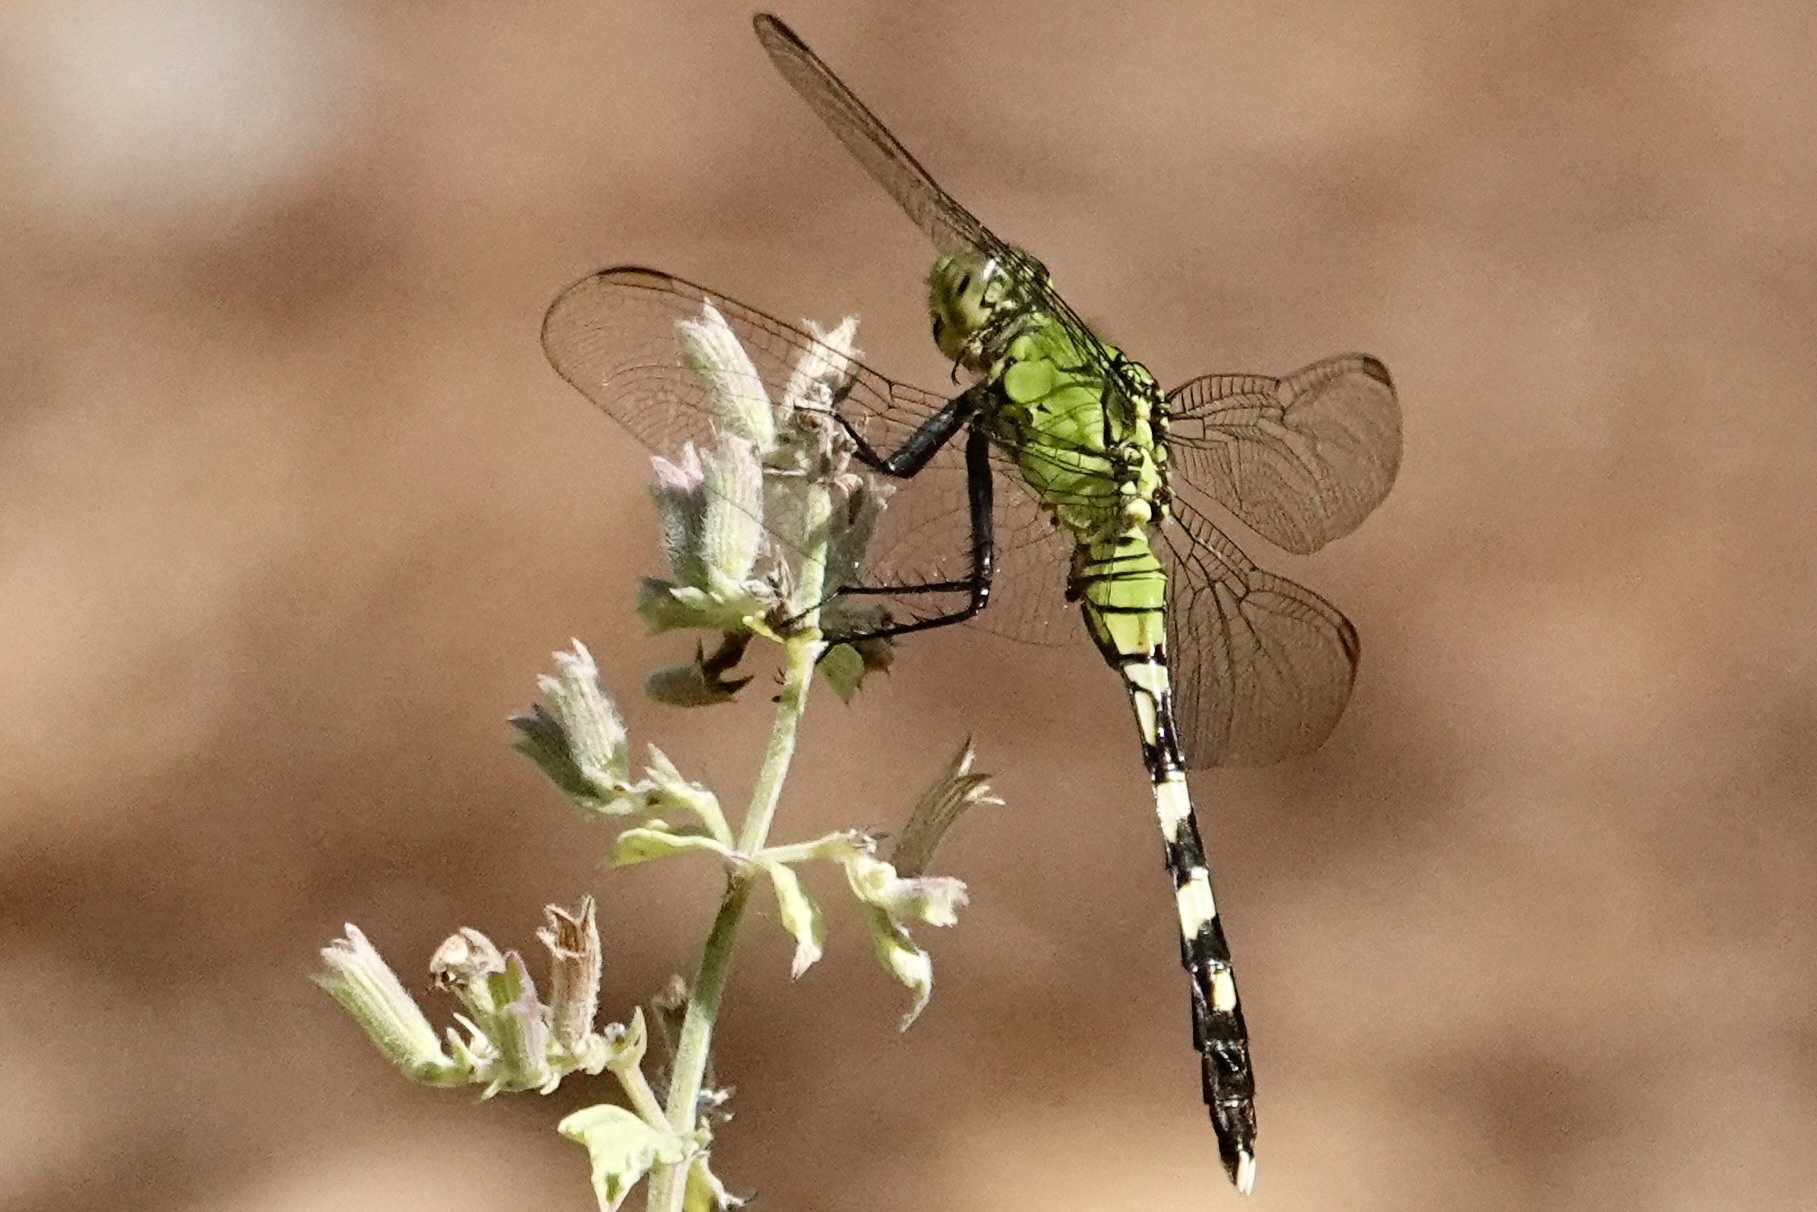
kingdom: Animalia
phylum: Arthropoda
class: Insecta
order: Odonata
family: Libellulidae
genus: Erythemis
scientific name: Erythemis simplicicollis
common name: Eastern pondhawk
